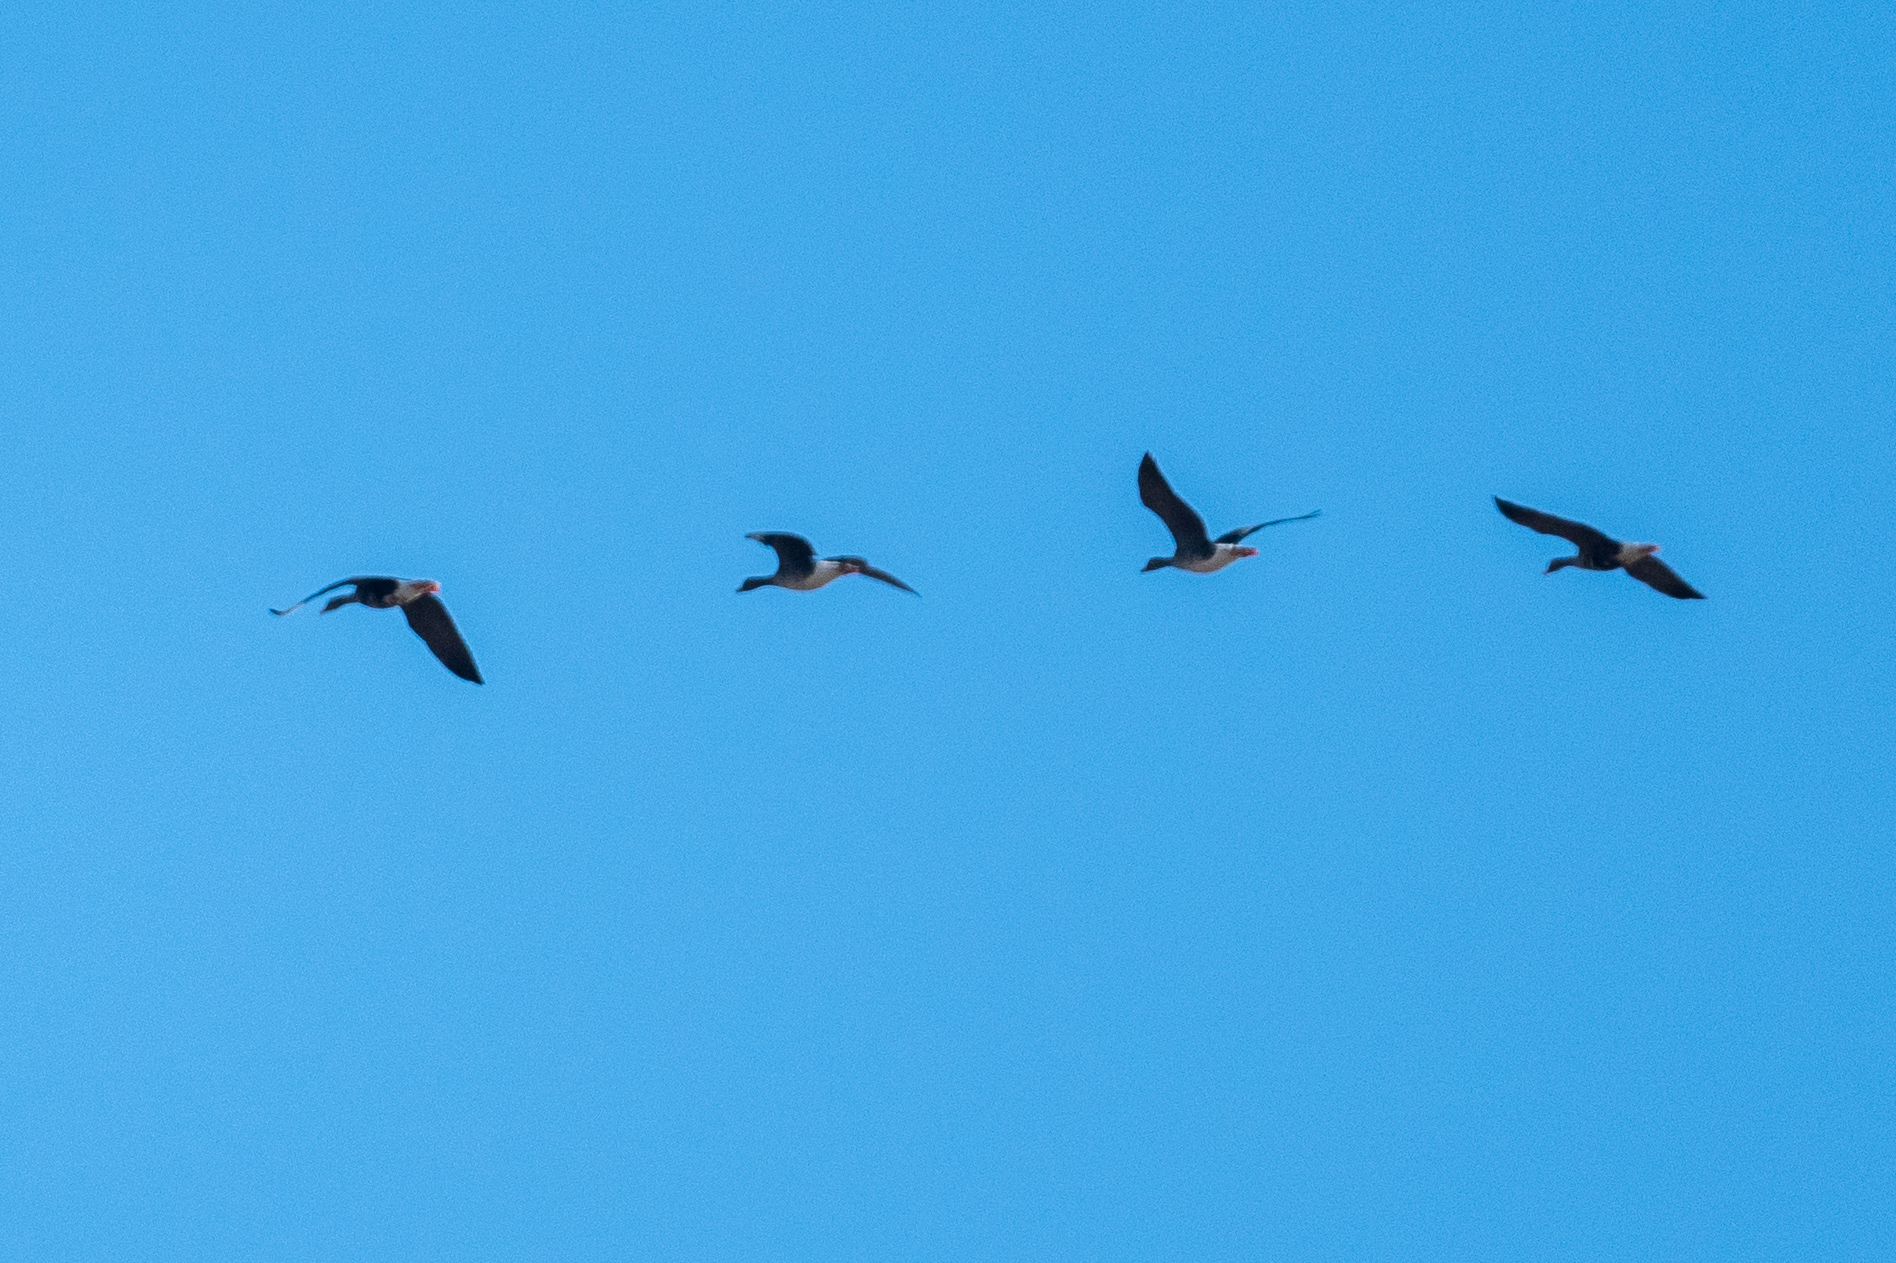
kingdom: Animalia
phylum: Chordata
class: Aves
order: Anseriformes
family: Anatidae
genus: Anser
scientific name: Anser albifrons
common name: Greater white-fronted goose
